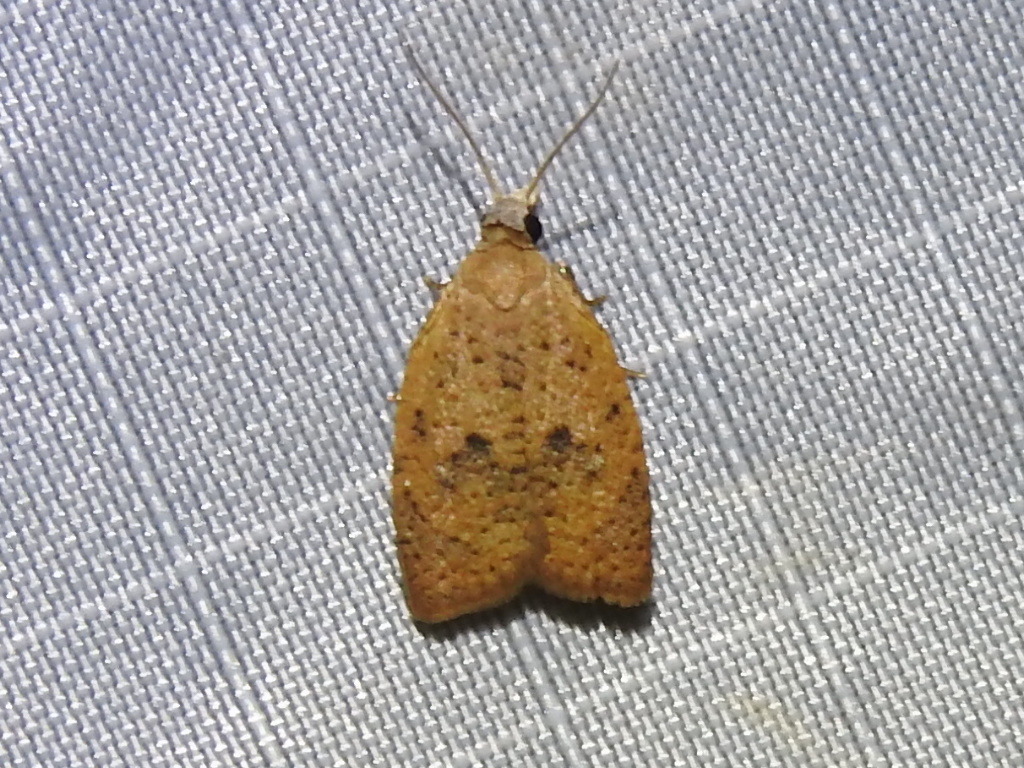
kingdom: Animalia
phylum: Arthropoda
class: Insecta
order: Lepidoptera
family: Tortricidae
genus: Sparganothoides
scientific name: Sparganothoides lentiginosana
